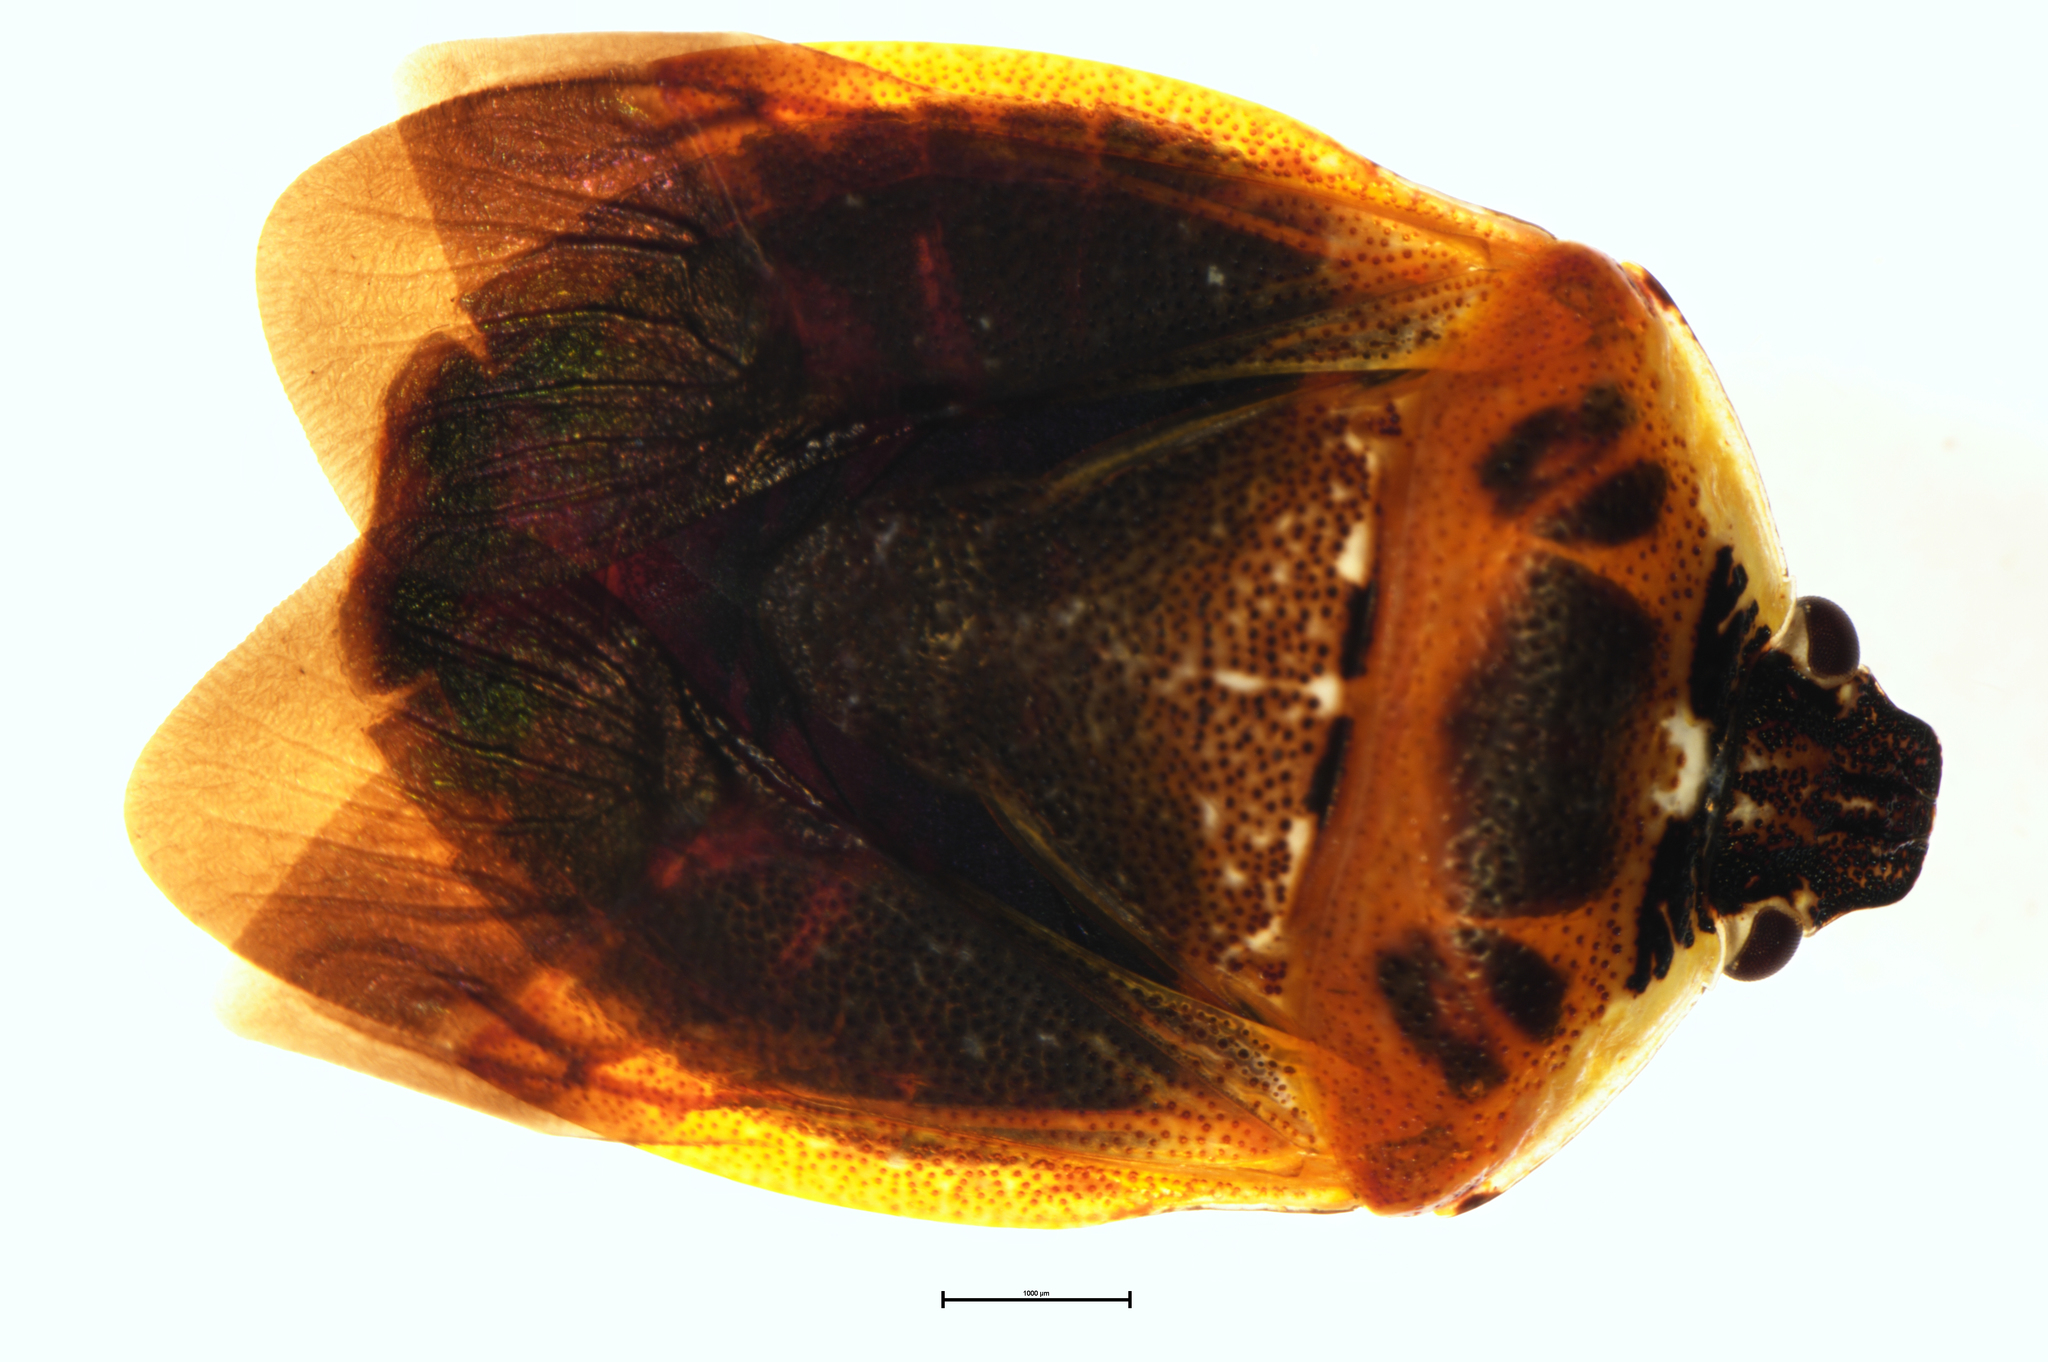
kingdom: Animalia
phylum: Arthropoda
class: Insecta
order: Hemiptera
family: Pentatomidae
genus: Monteithiella
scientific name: Monteithiella
